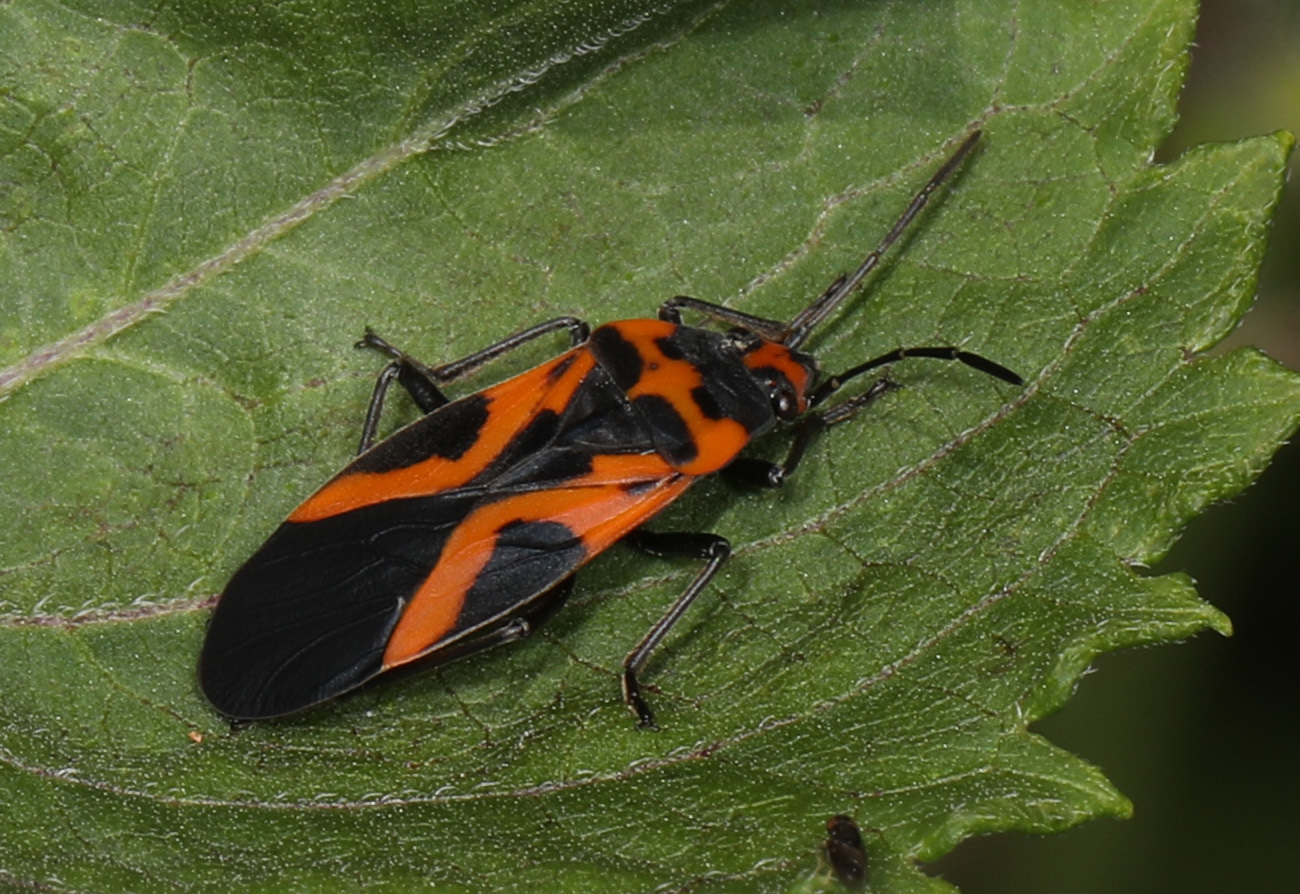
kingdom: Animalia
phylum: Arthropoda
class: Insecta
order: Hemiptera
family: Lygaeidae
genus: Lygaeus
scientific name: Lygaeus turcicus
